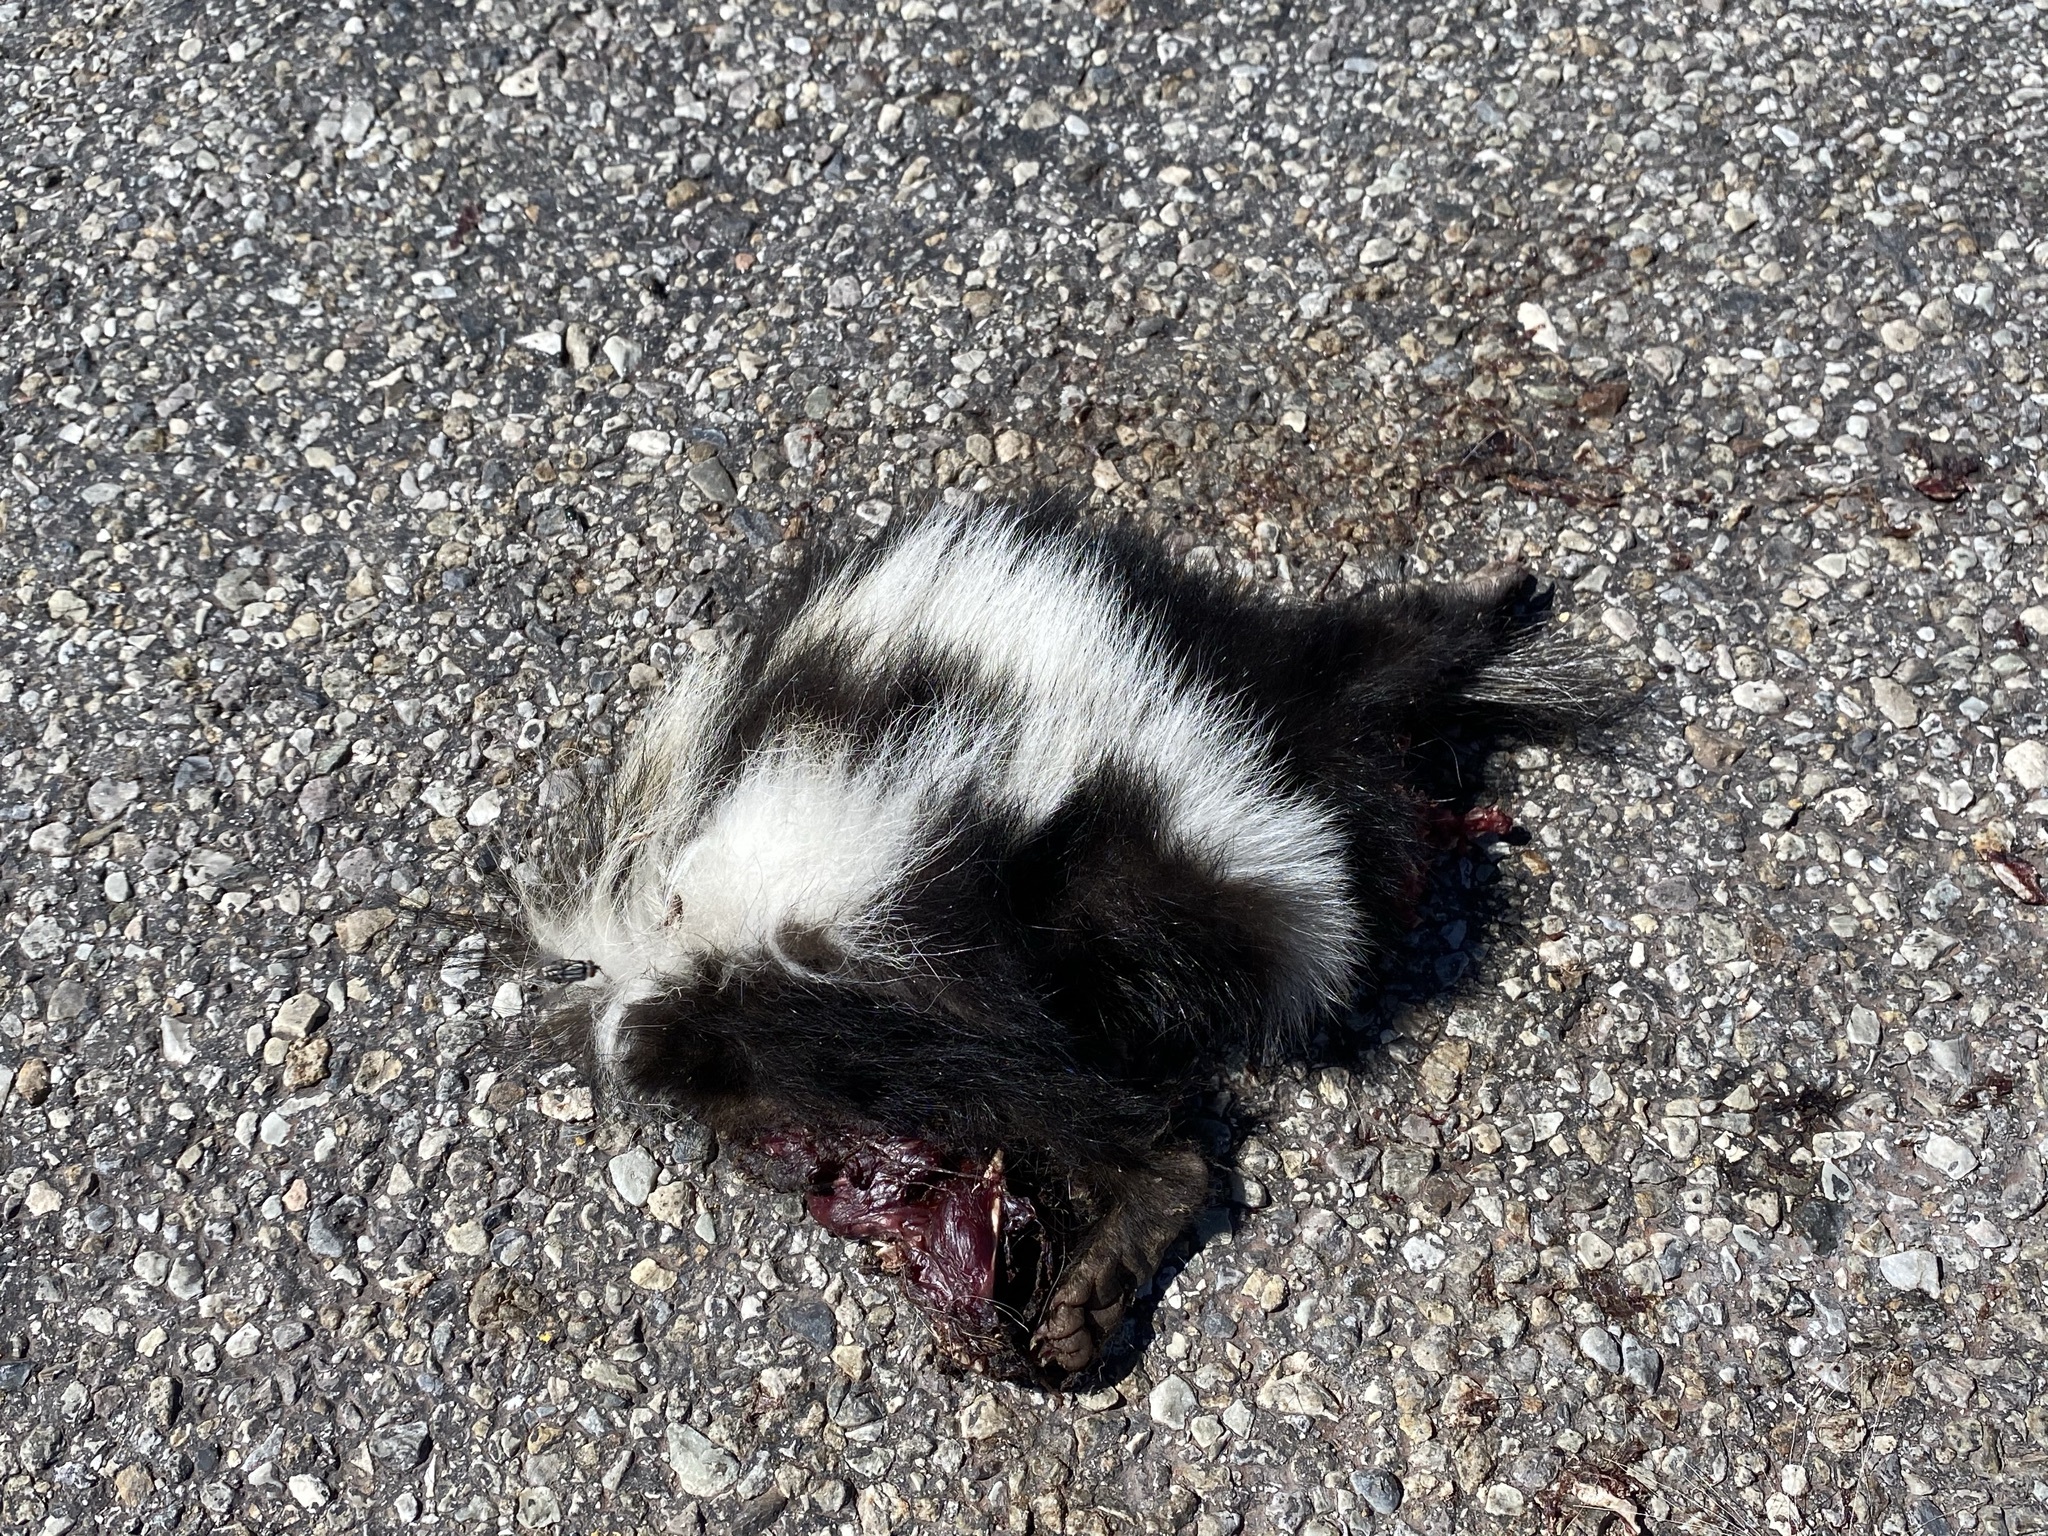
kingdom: Animalia
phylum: Chordata
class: Mammalia
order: Carnivora
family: Mephitidae
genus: Mephitis
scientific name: Mephitis mephitis
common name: Striped skunk
